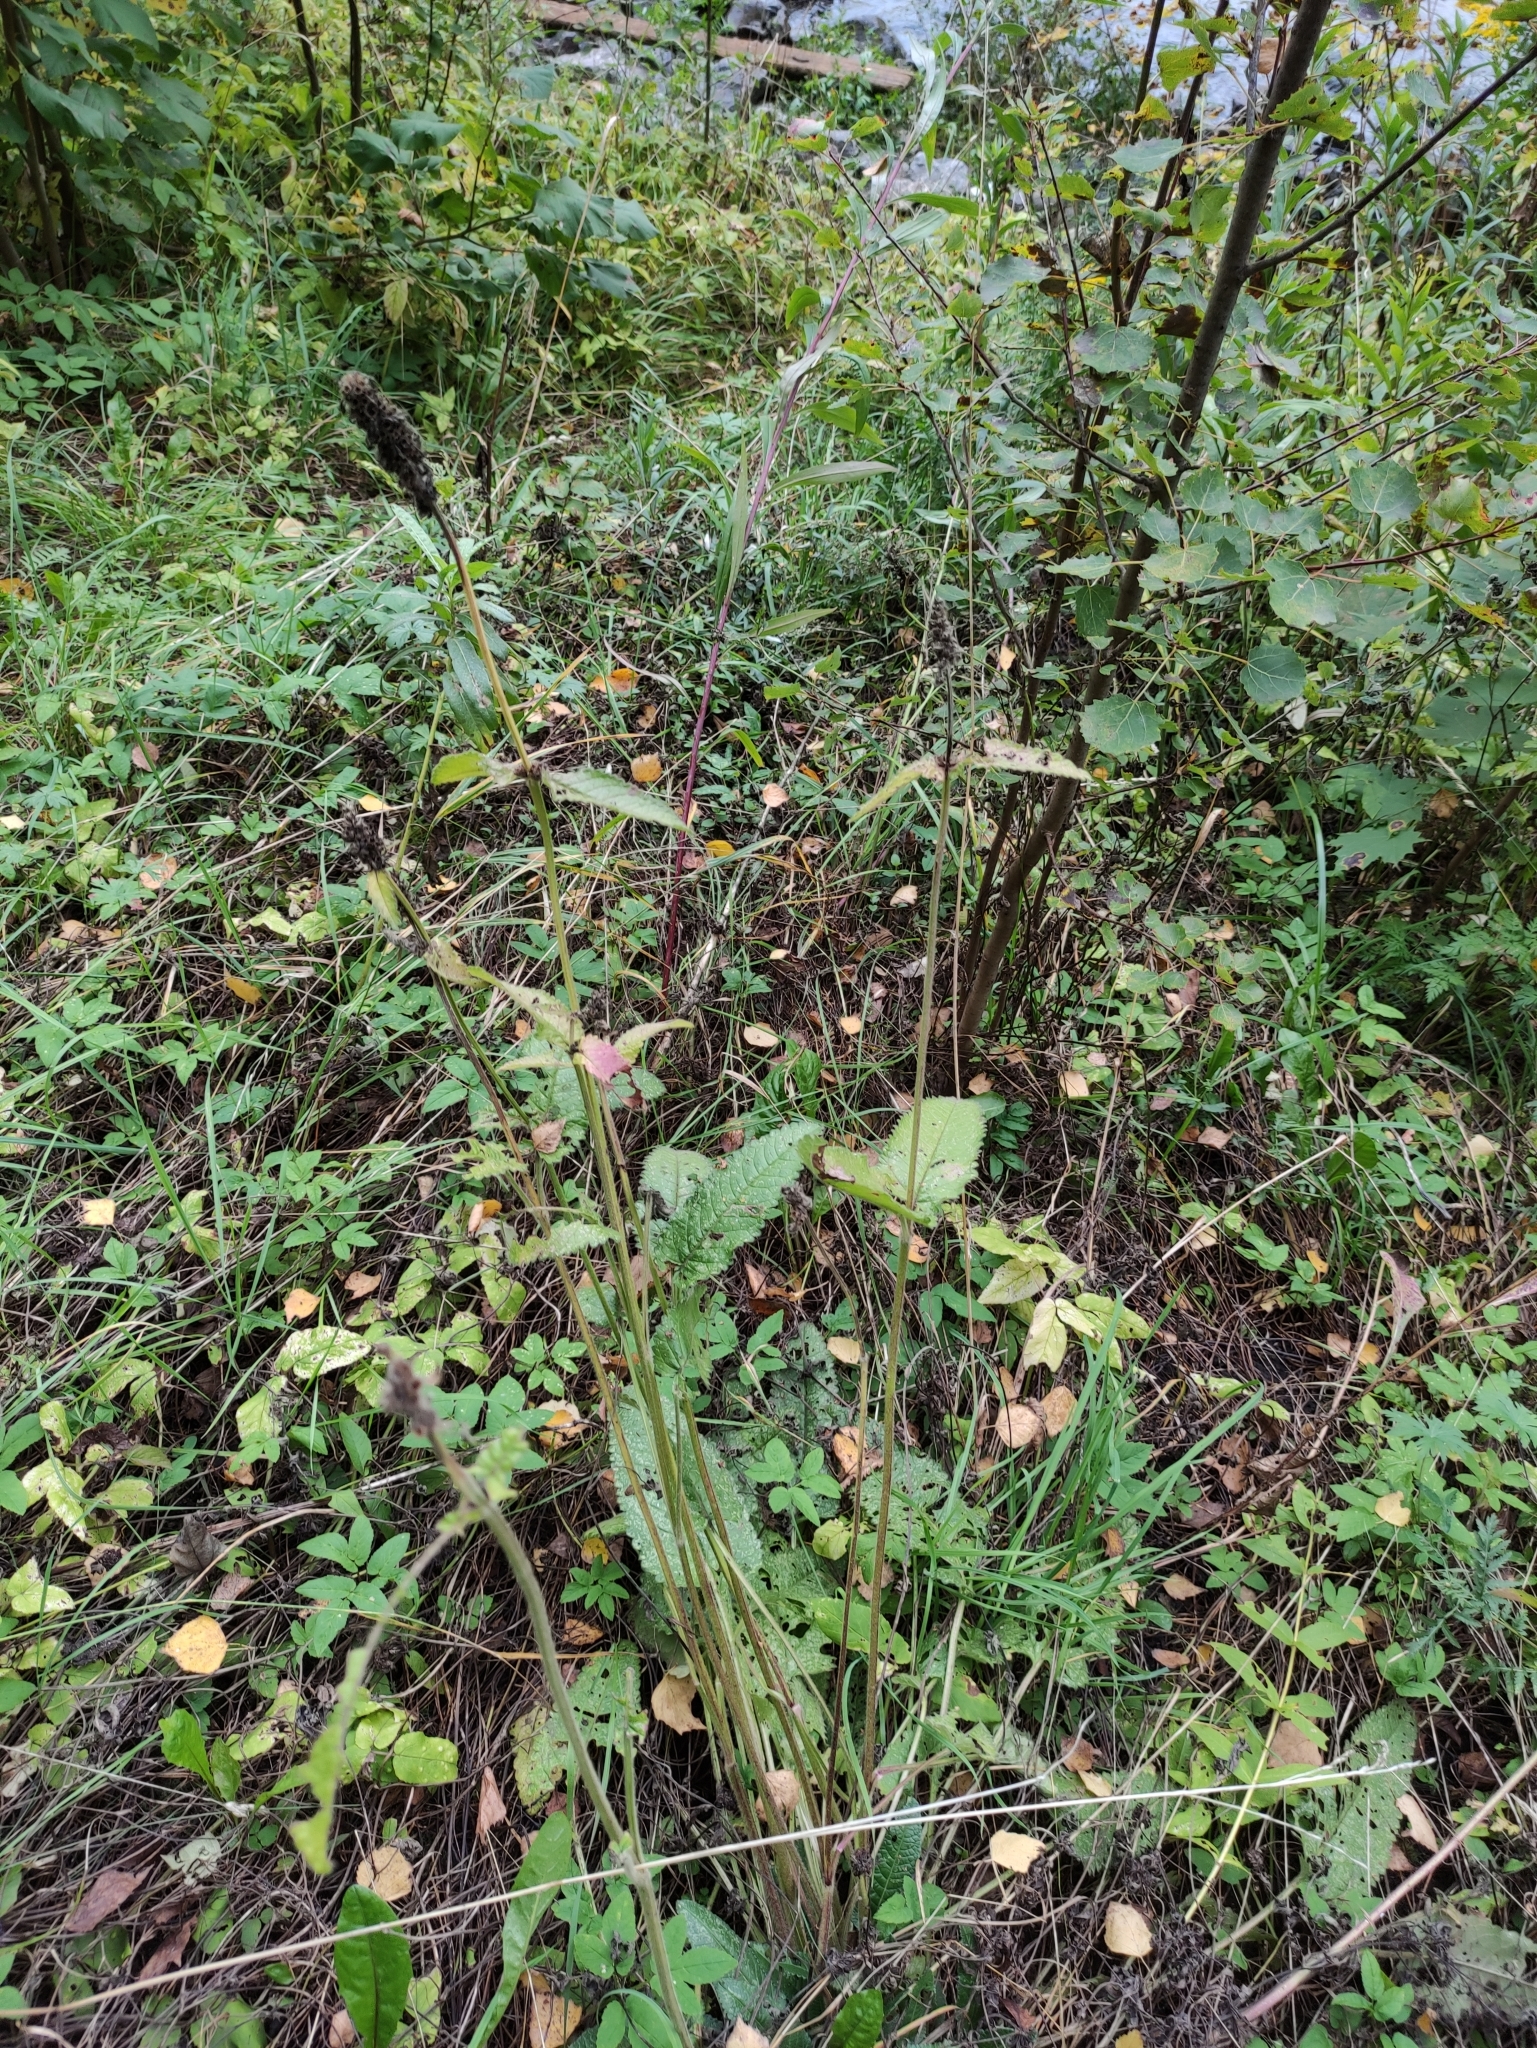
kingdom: Plantae
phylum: Tracheophyta
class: Magnoliopsida
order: Lamiales
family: Lamiaceae
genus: Betonica
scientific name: Betonica officinalis
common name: Bishop's-wort
